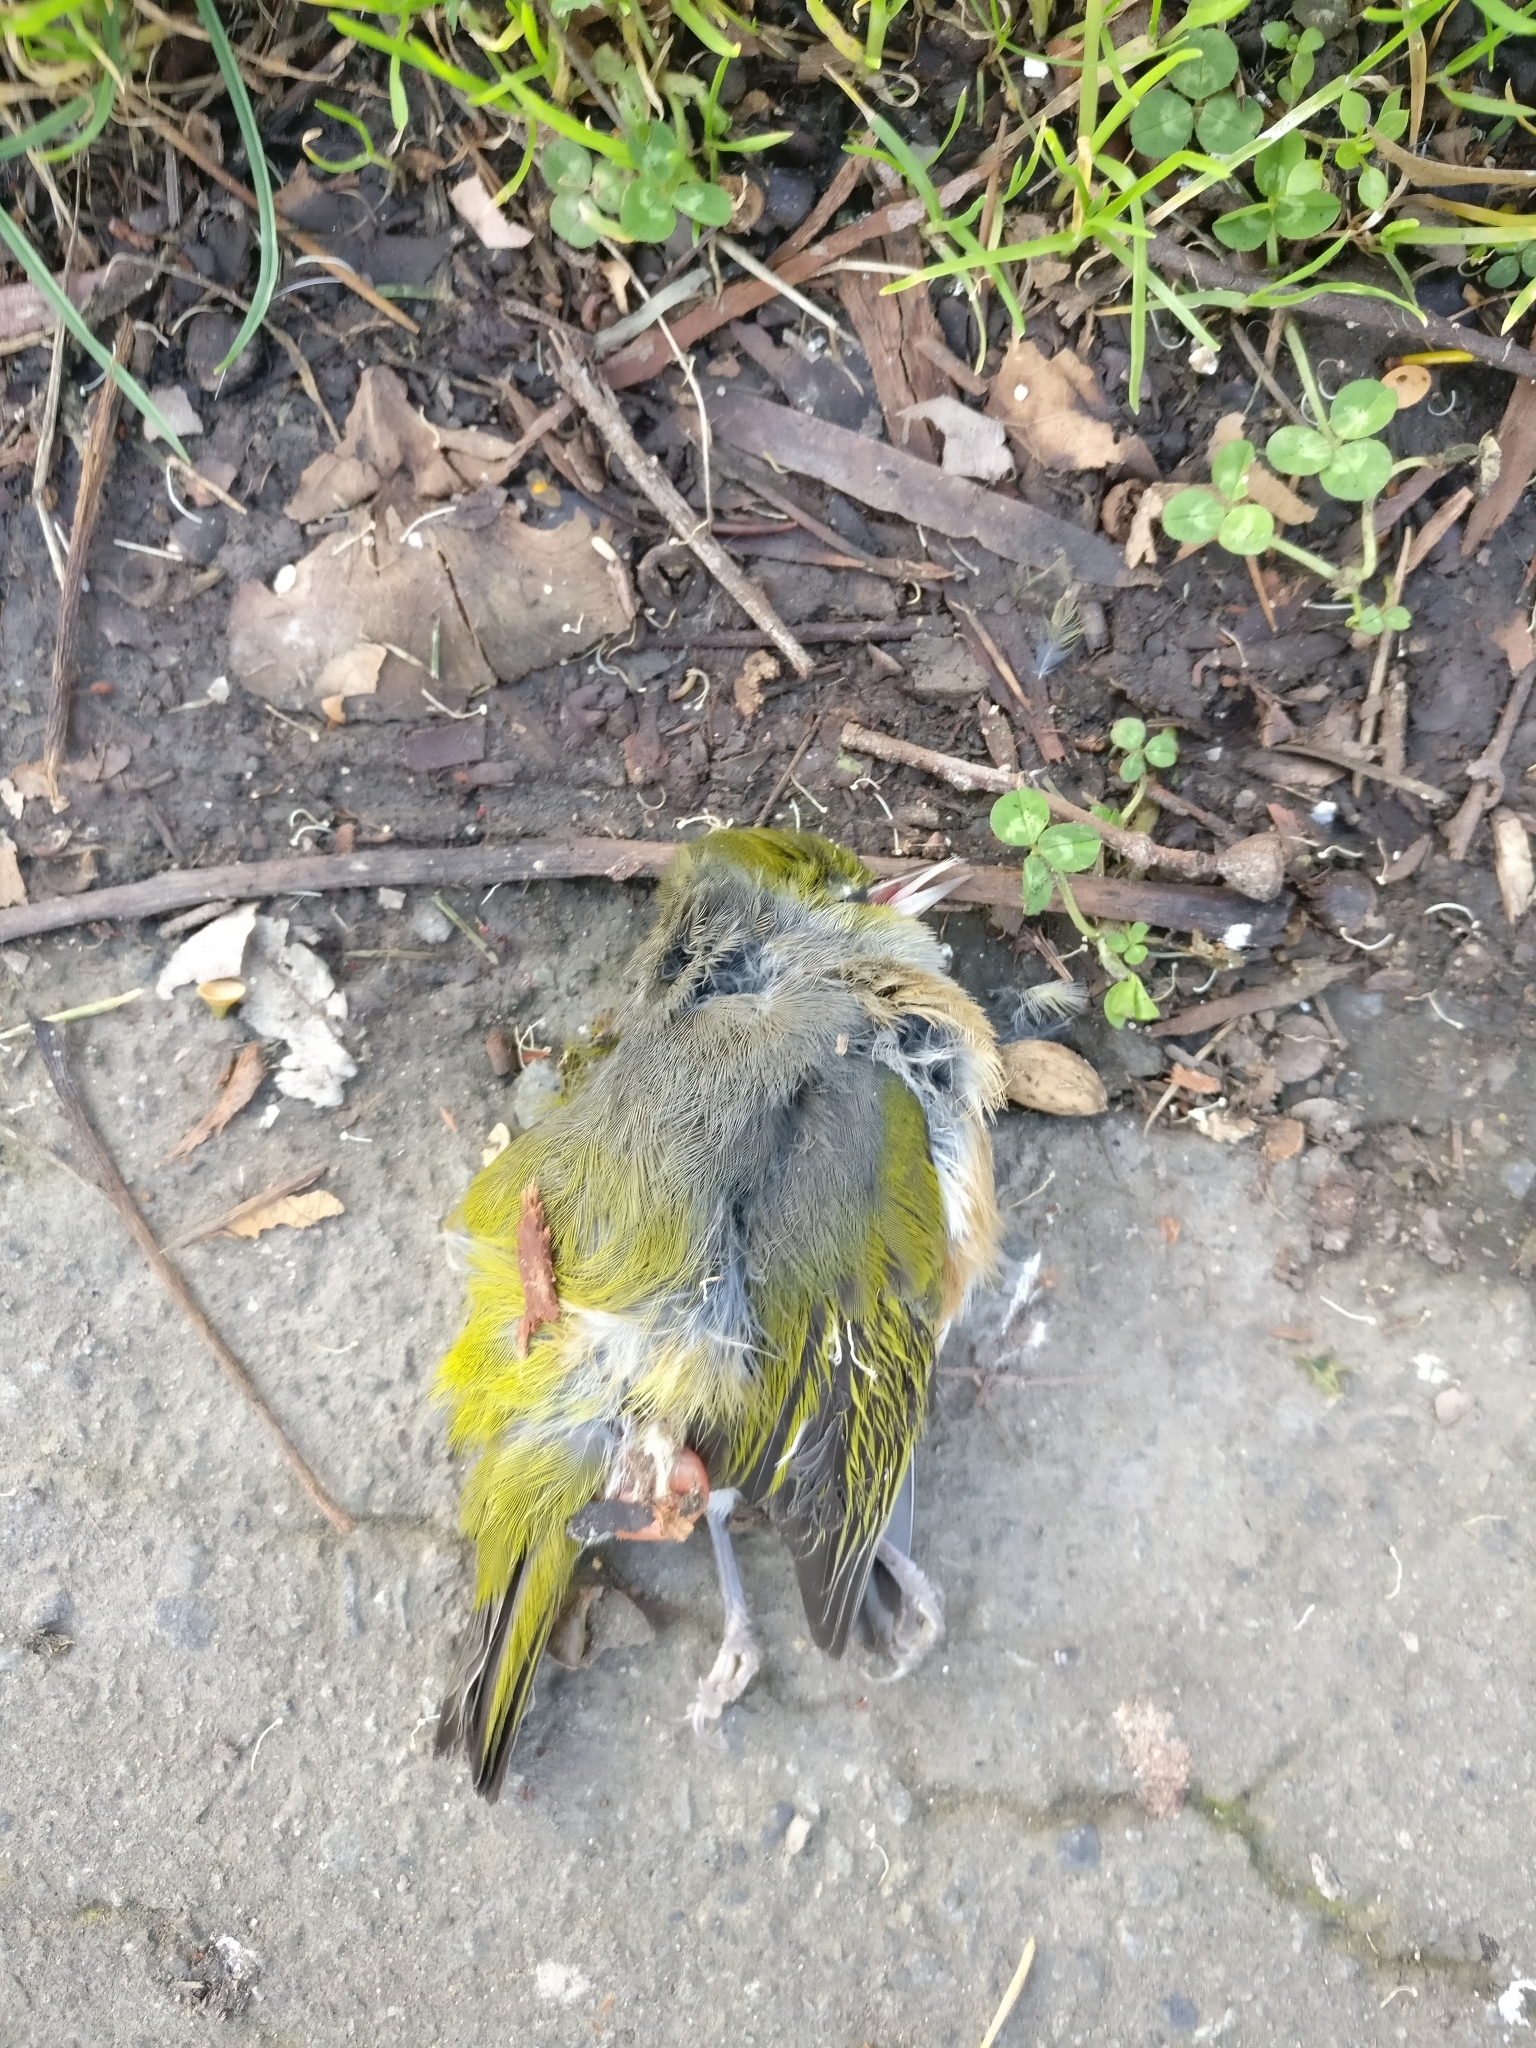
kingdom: Animalia
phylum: Chordata
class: Aves
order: Passeriformes
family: Zosteropidae
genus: Zosterops
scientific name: Zosterops lateralis
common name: Silvereye
